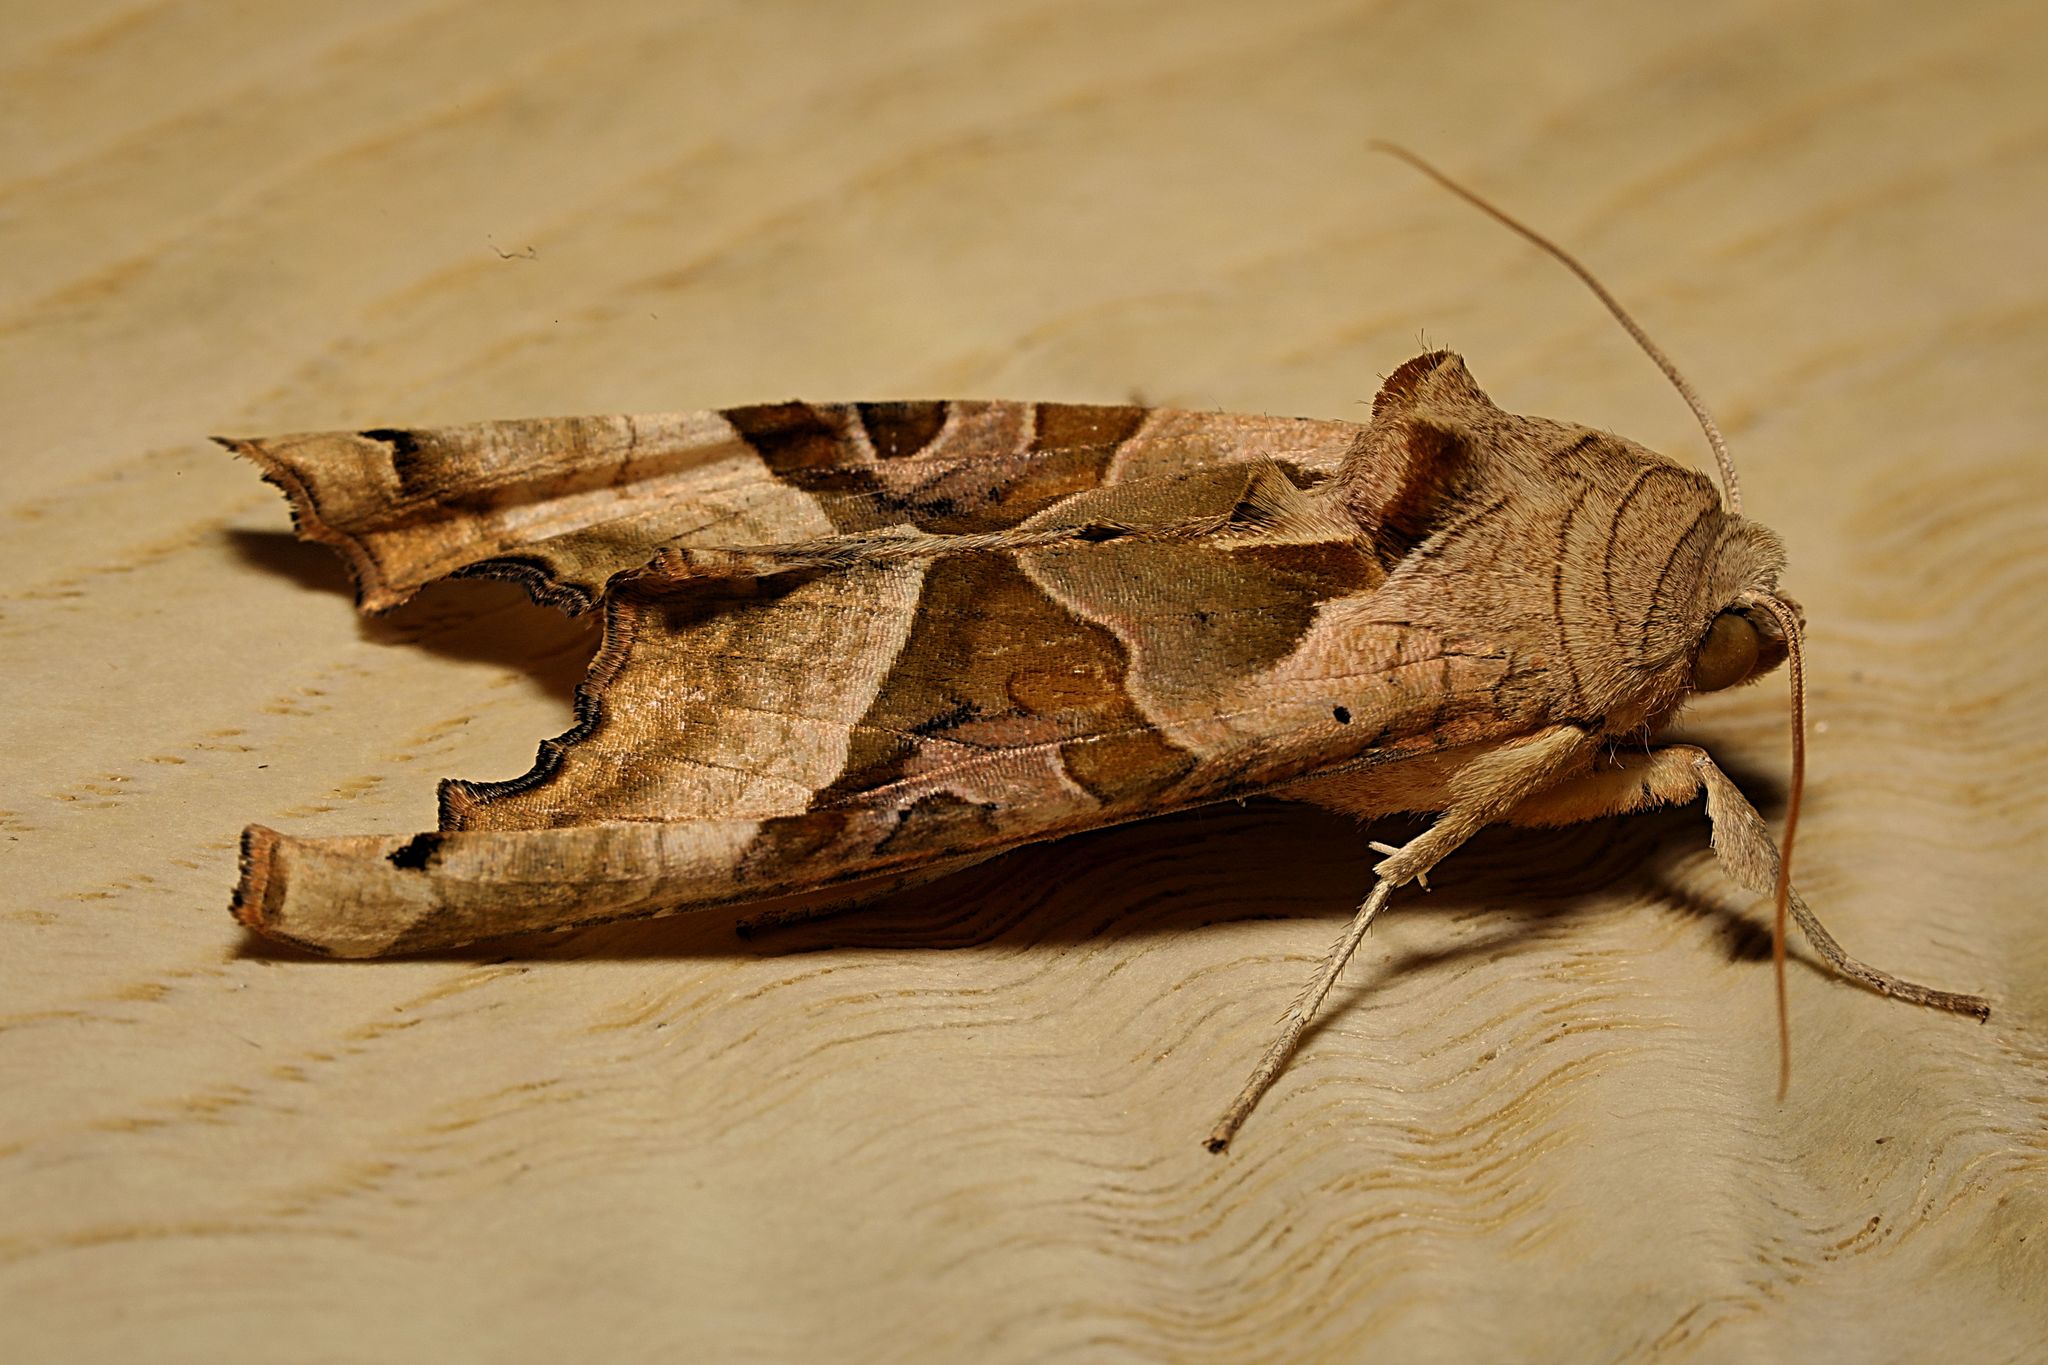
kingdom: Animalia
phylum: Arthropoda
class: Insecta
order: Lepidoptera
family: Noctuidae
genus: Phlogophora
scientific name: Phlogophora meticulosa
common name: Angle shades
